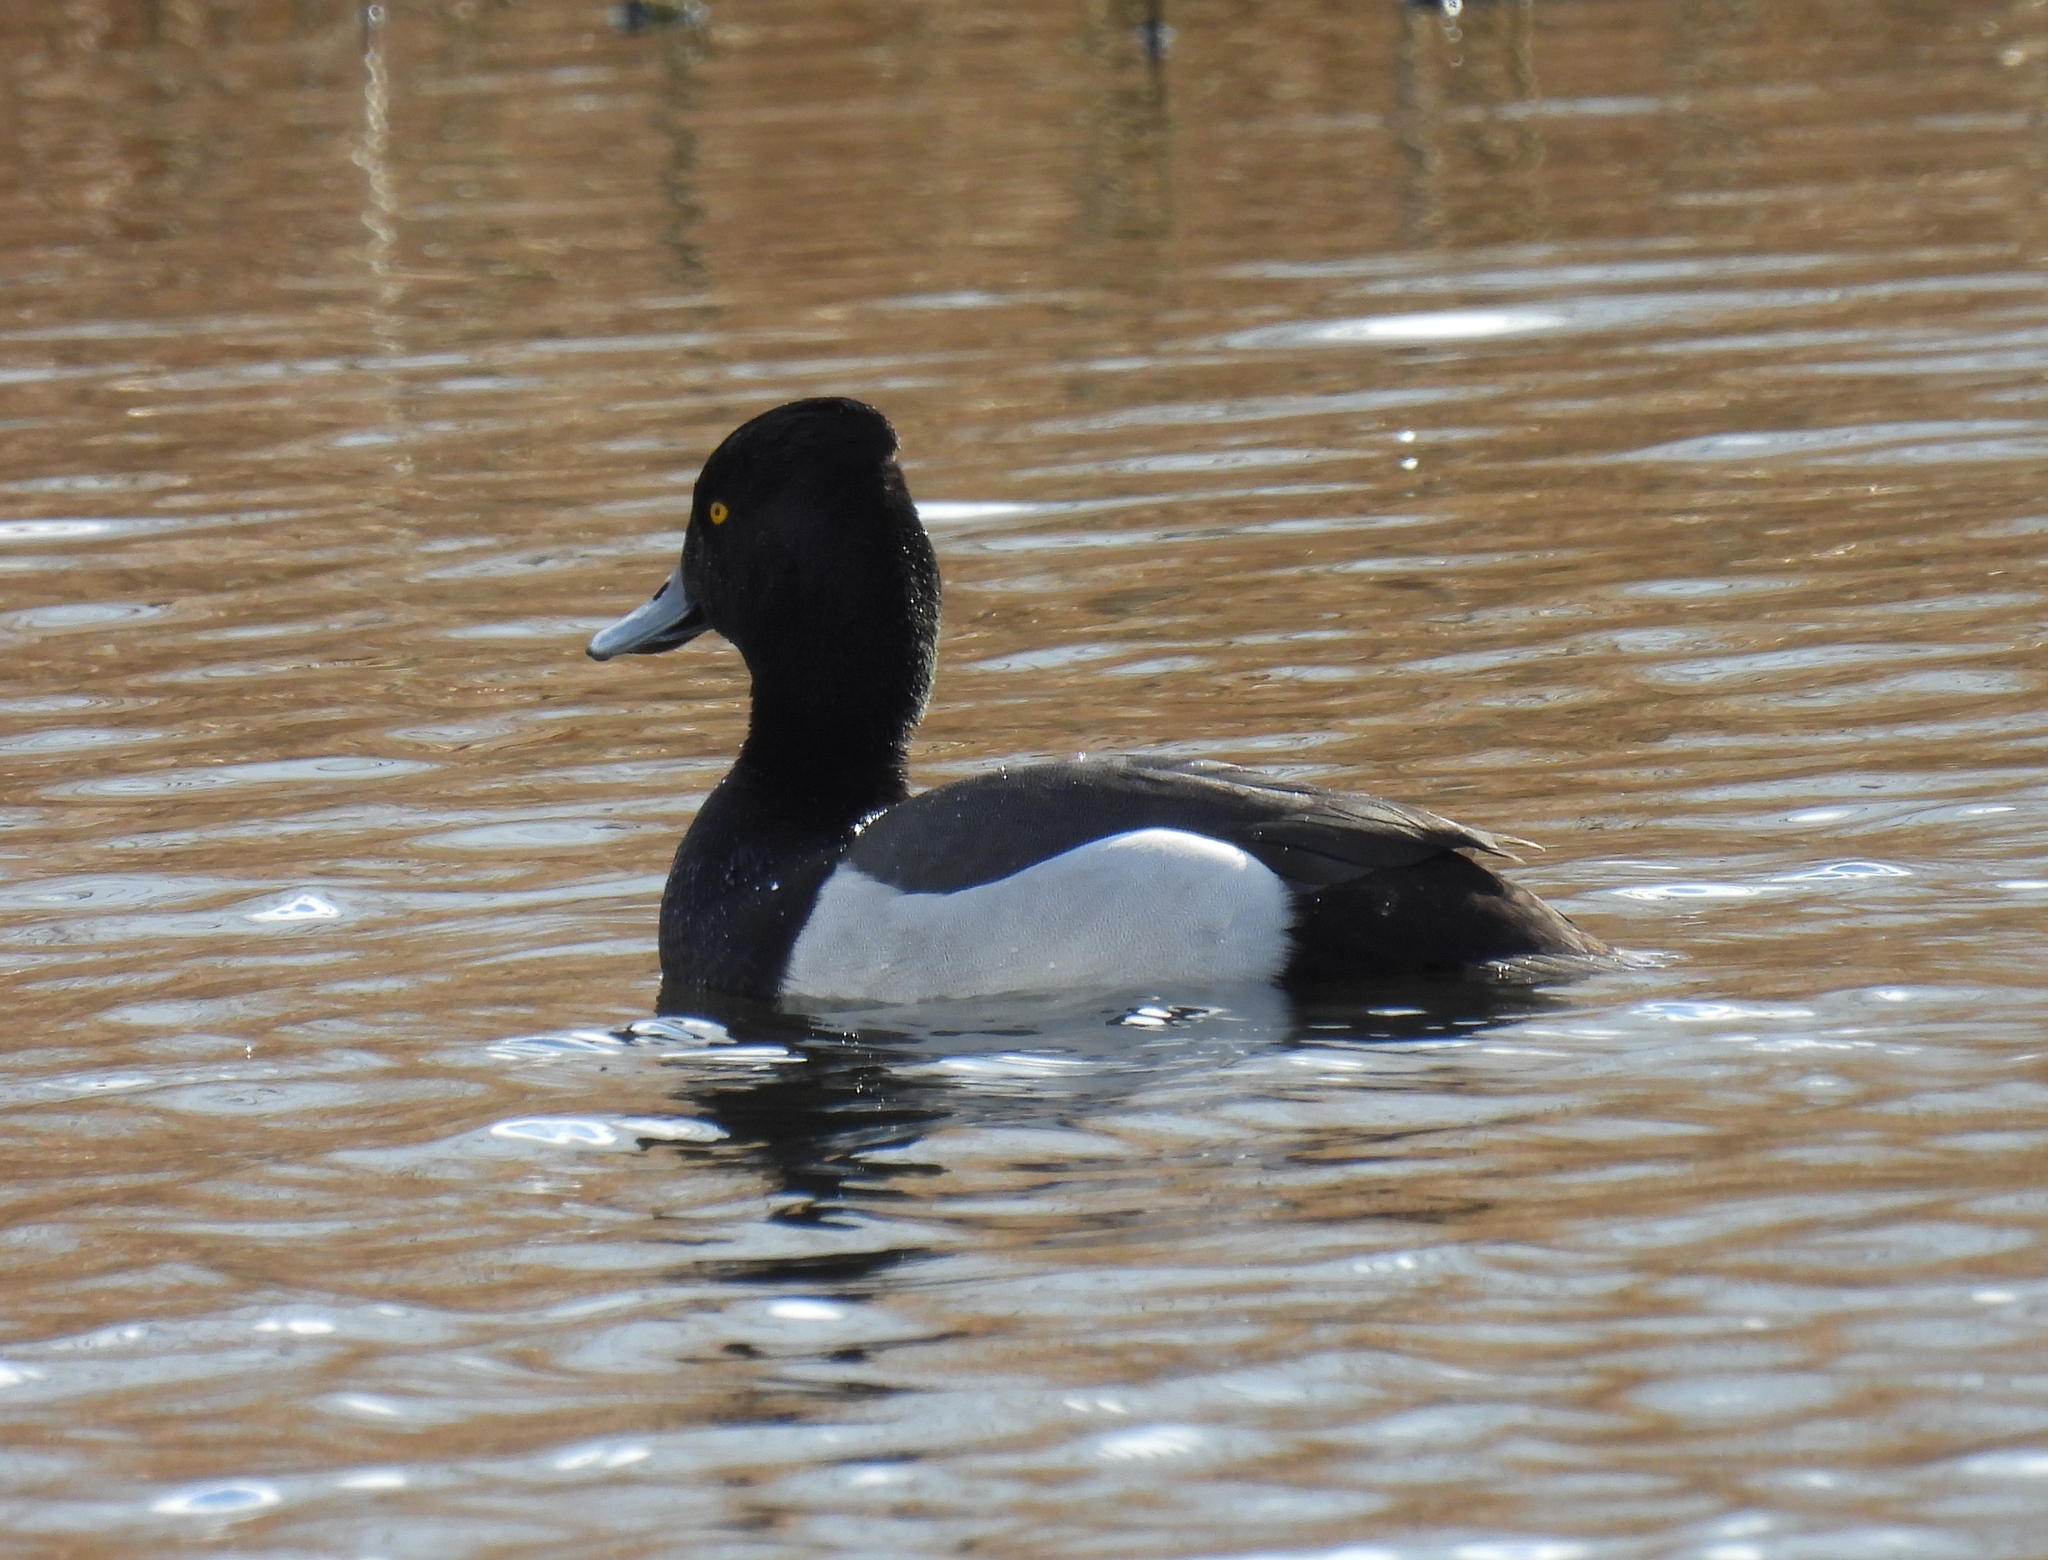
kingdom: Animalia
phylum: Chordata
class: Aves
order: Anseriformes
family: Anatidae
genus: Aythya
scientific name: Aythya fuligula
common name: Tufted duck
